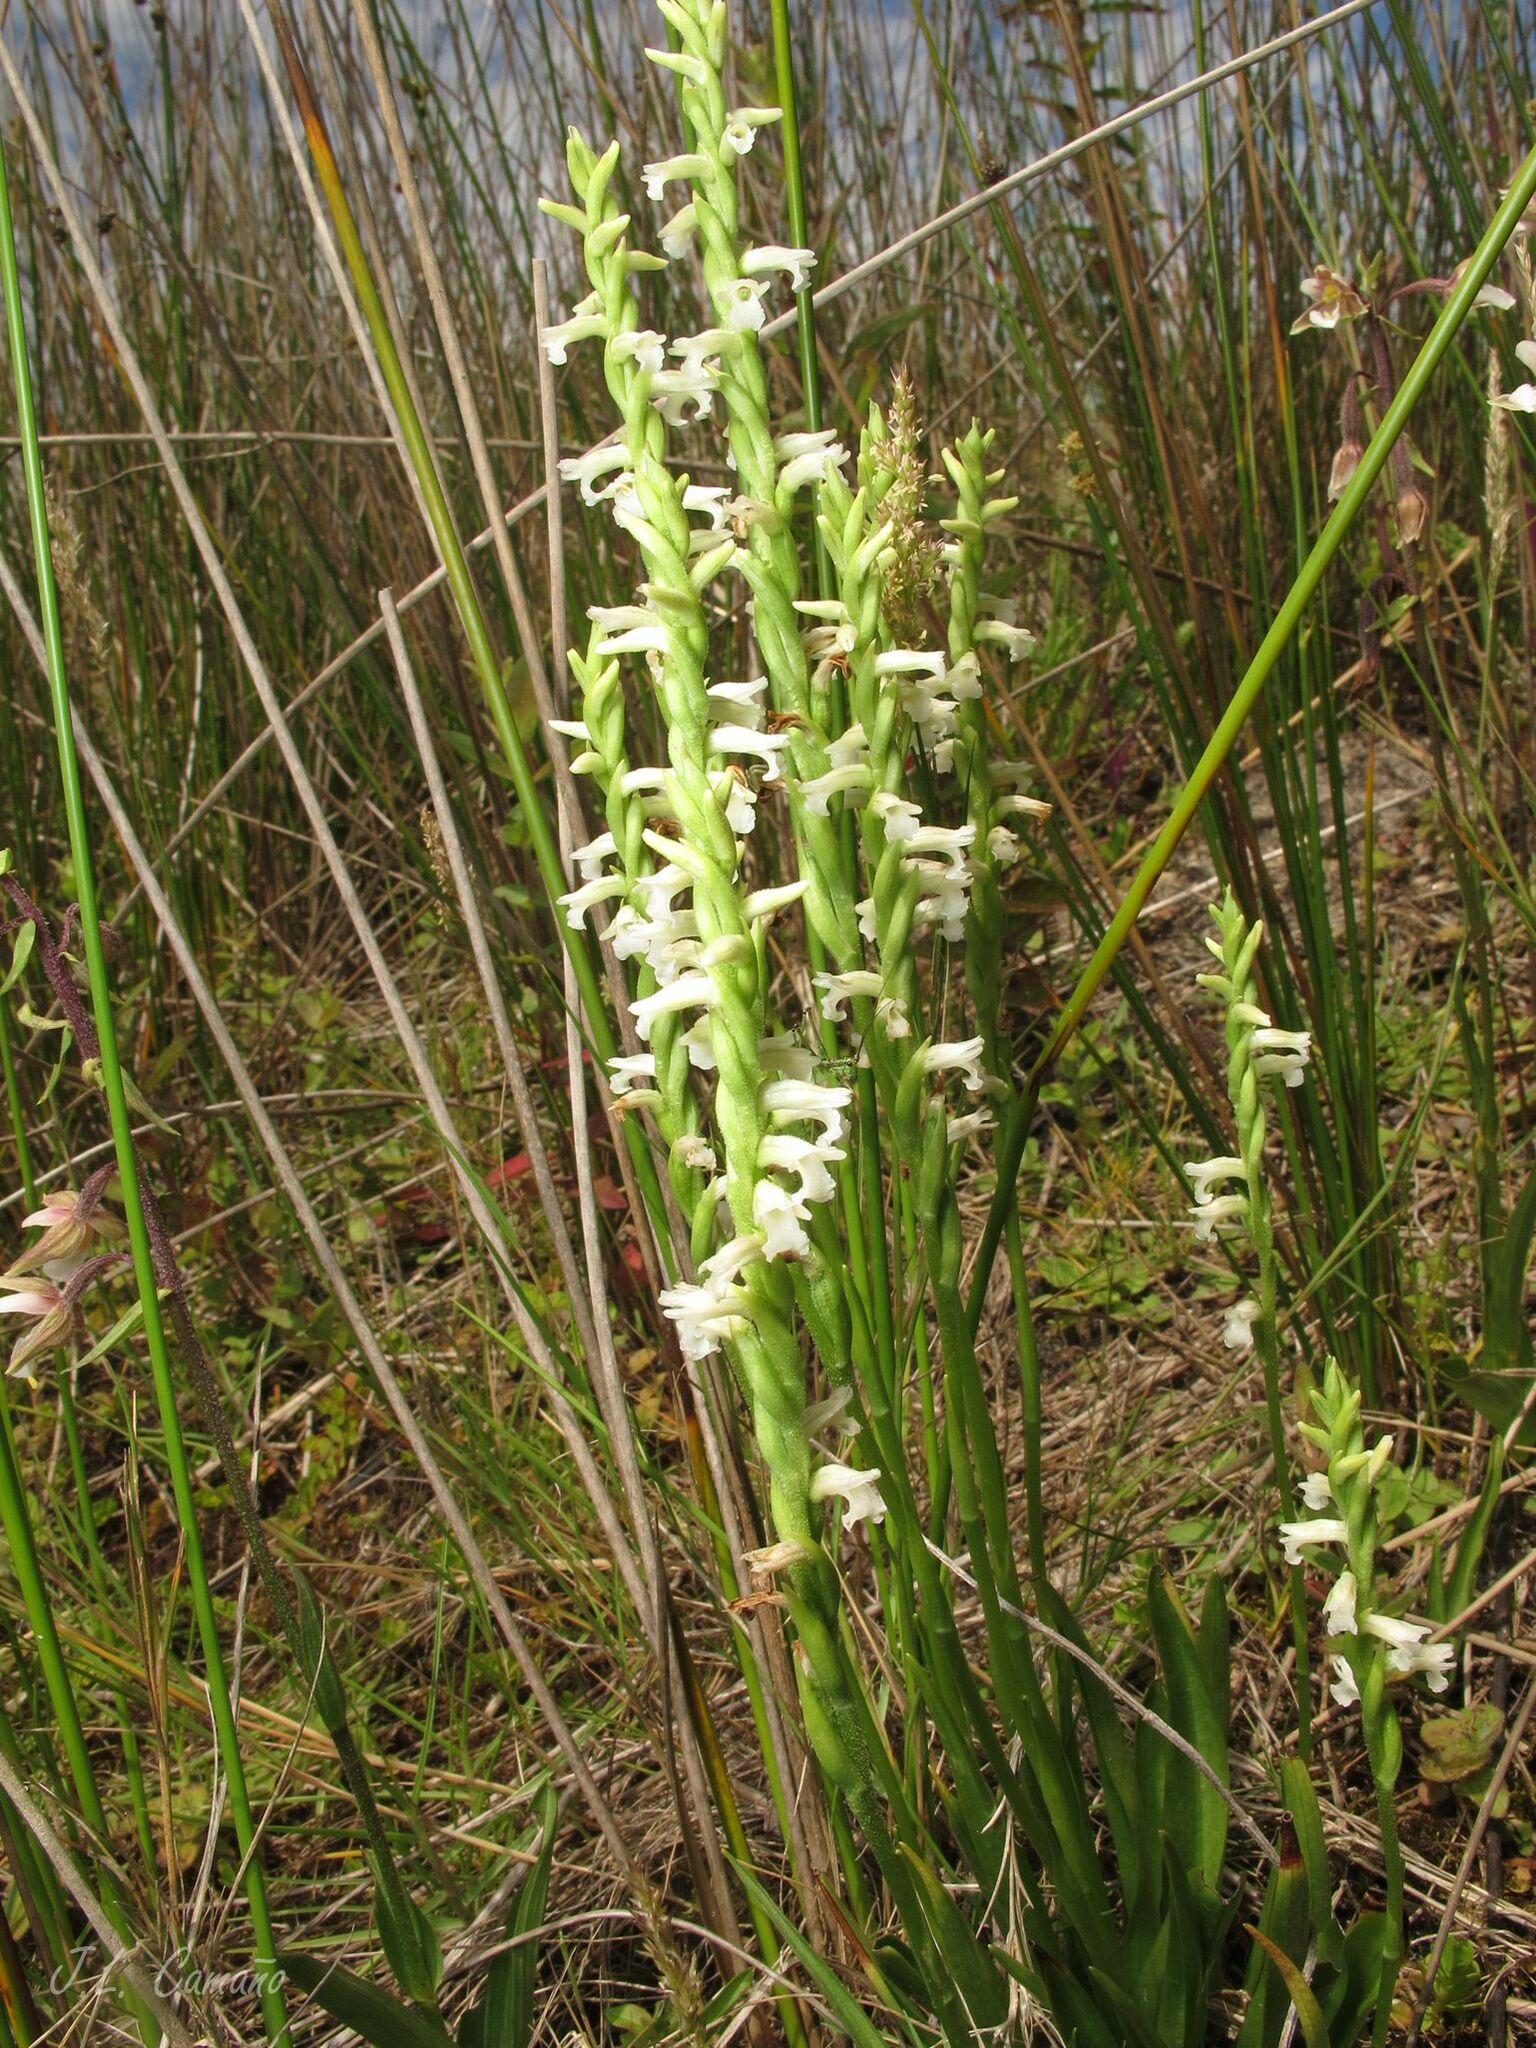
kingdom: Plantae
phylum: Tracheophyta
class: Liliopsida
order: Asparagales
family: Orchidaceae
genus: Spiranthes
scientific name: Spiranthes aestivalis
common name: Summer lady's-tresses
